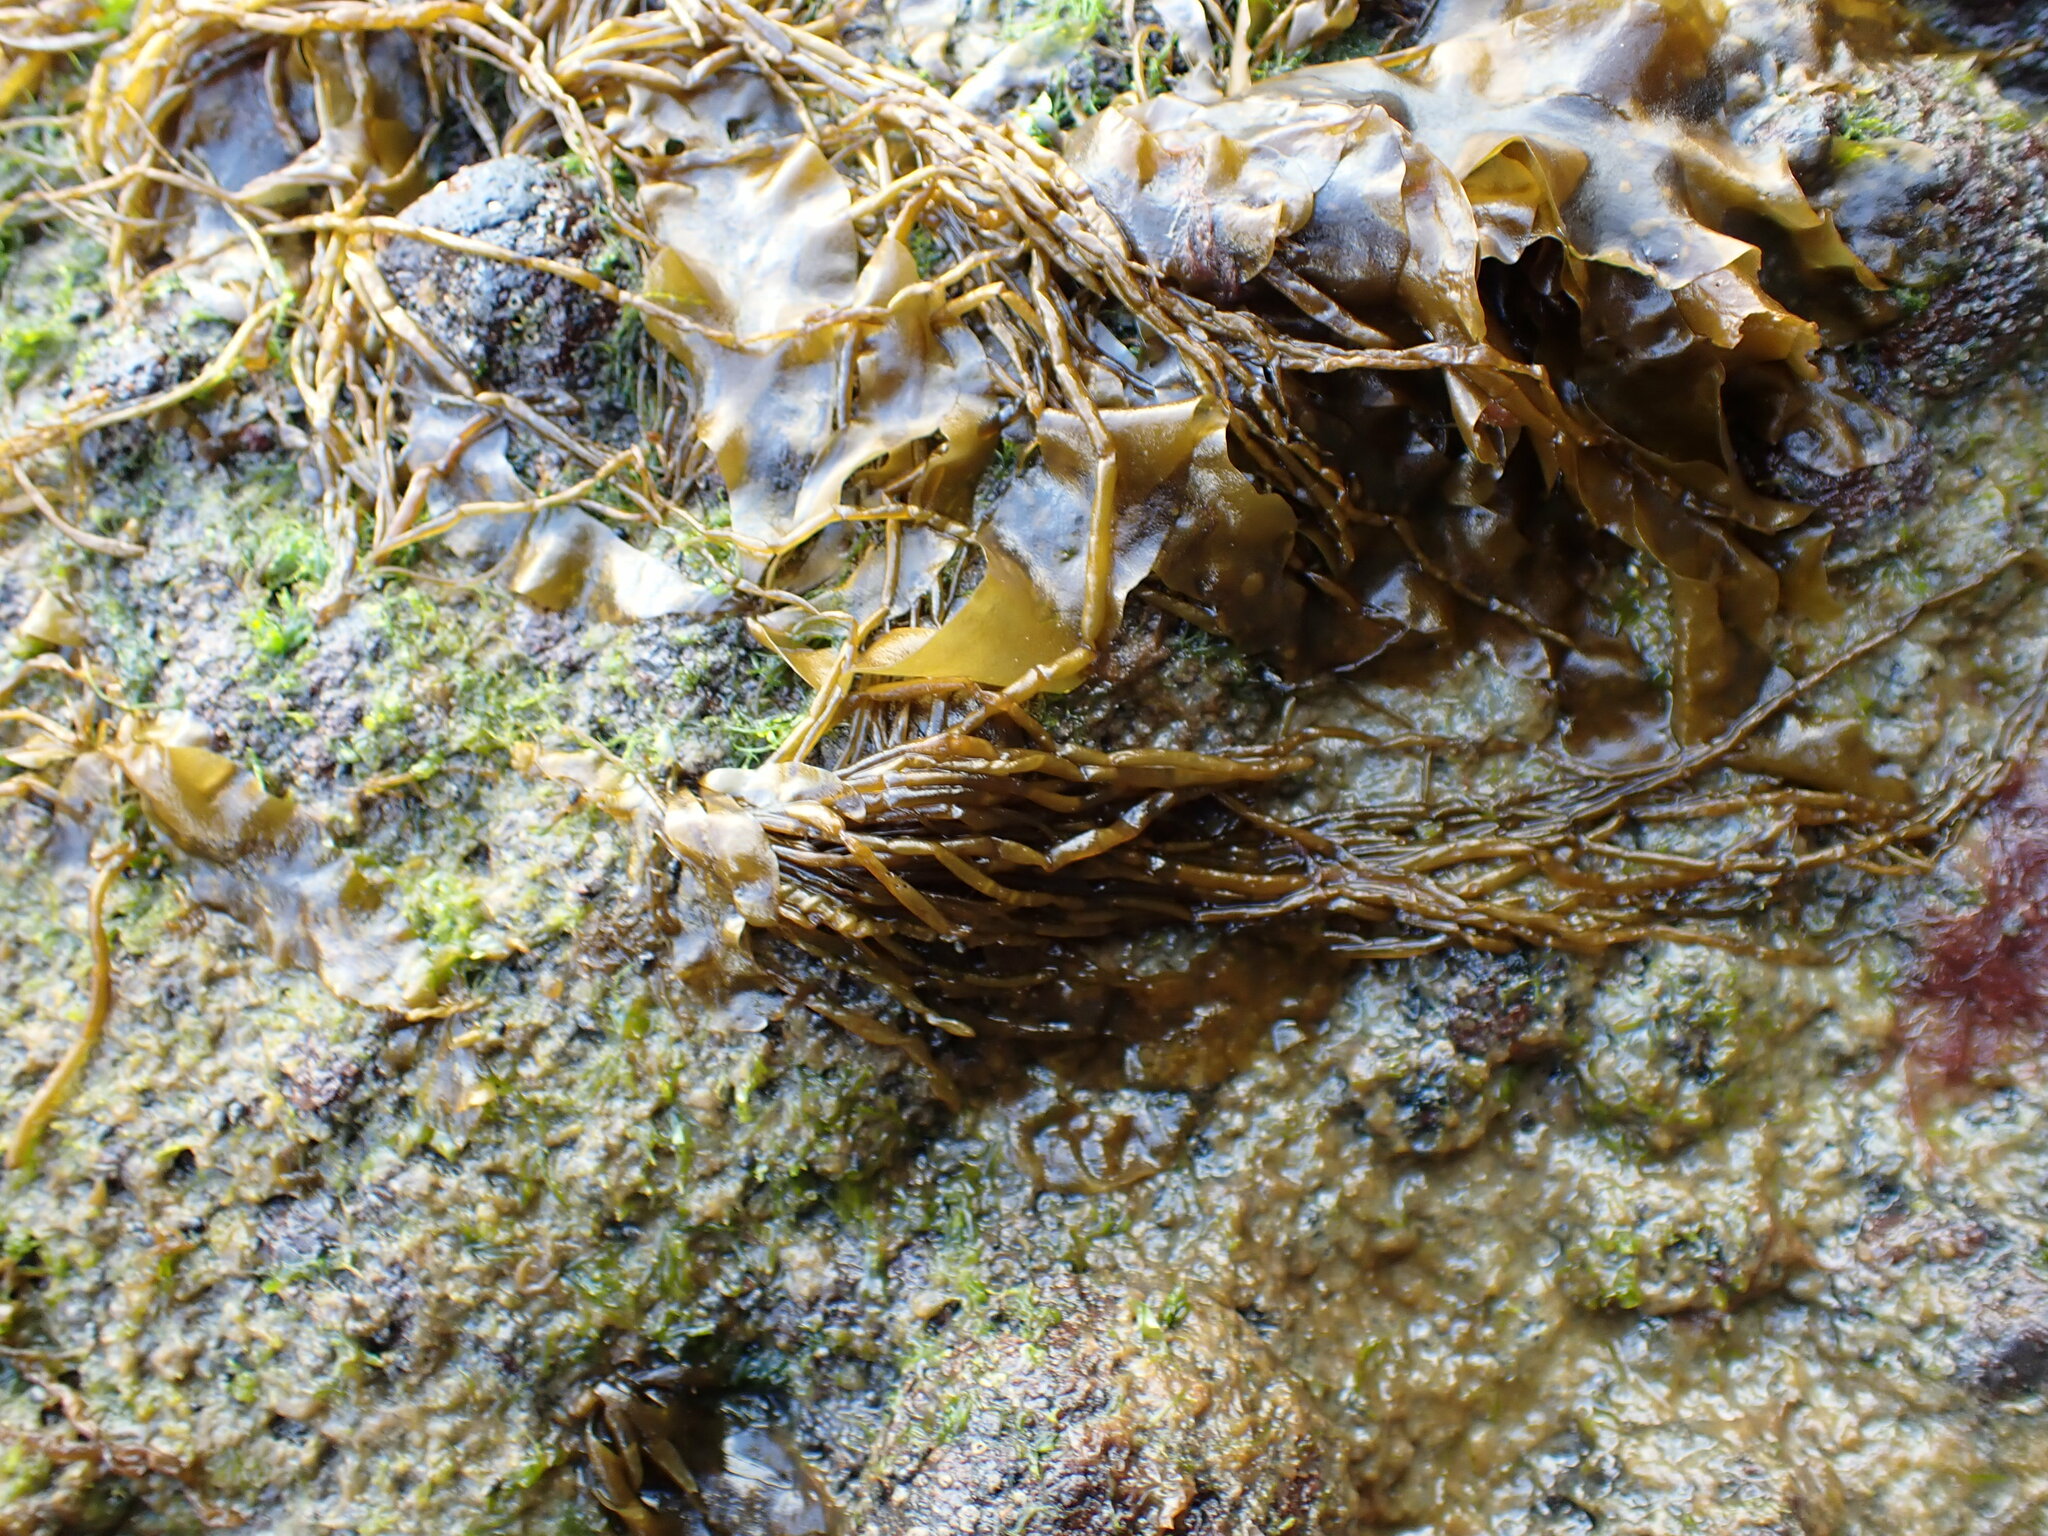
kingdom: Chromista
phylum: Ochrophyta
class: Phaeophyceae
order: Scytosiphonales
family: Scytosiphonaceae
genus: Scytosiphon
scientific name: Scytosiphon lomentaria
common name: Beanweed
